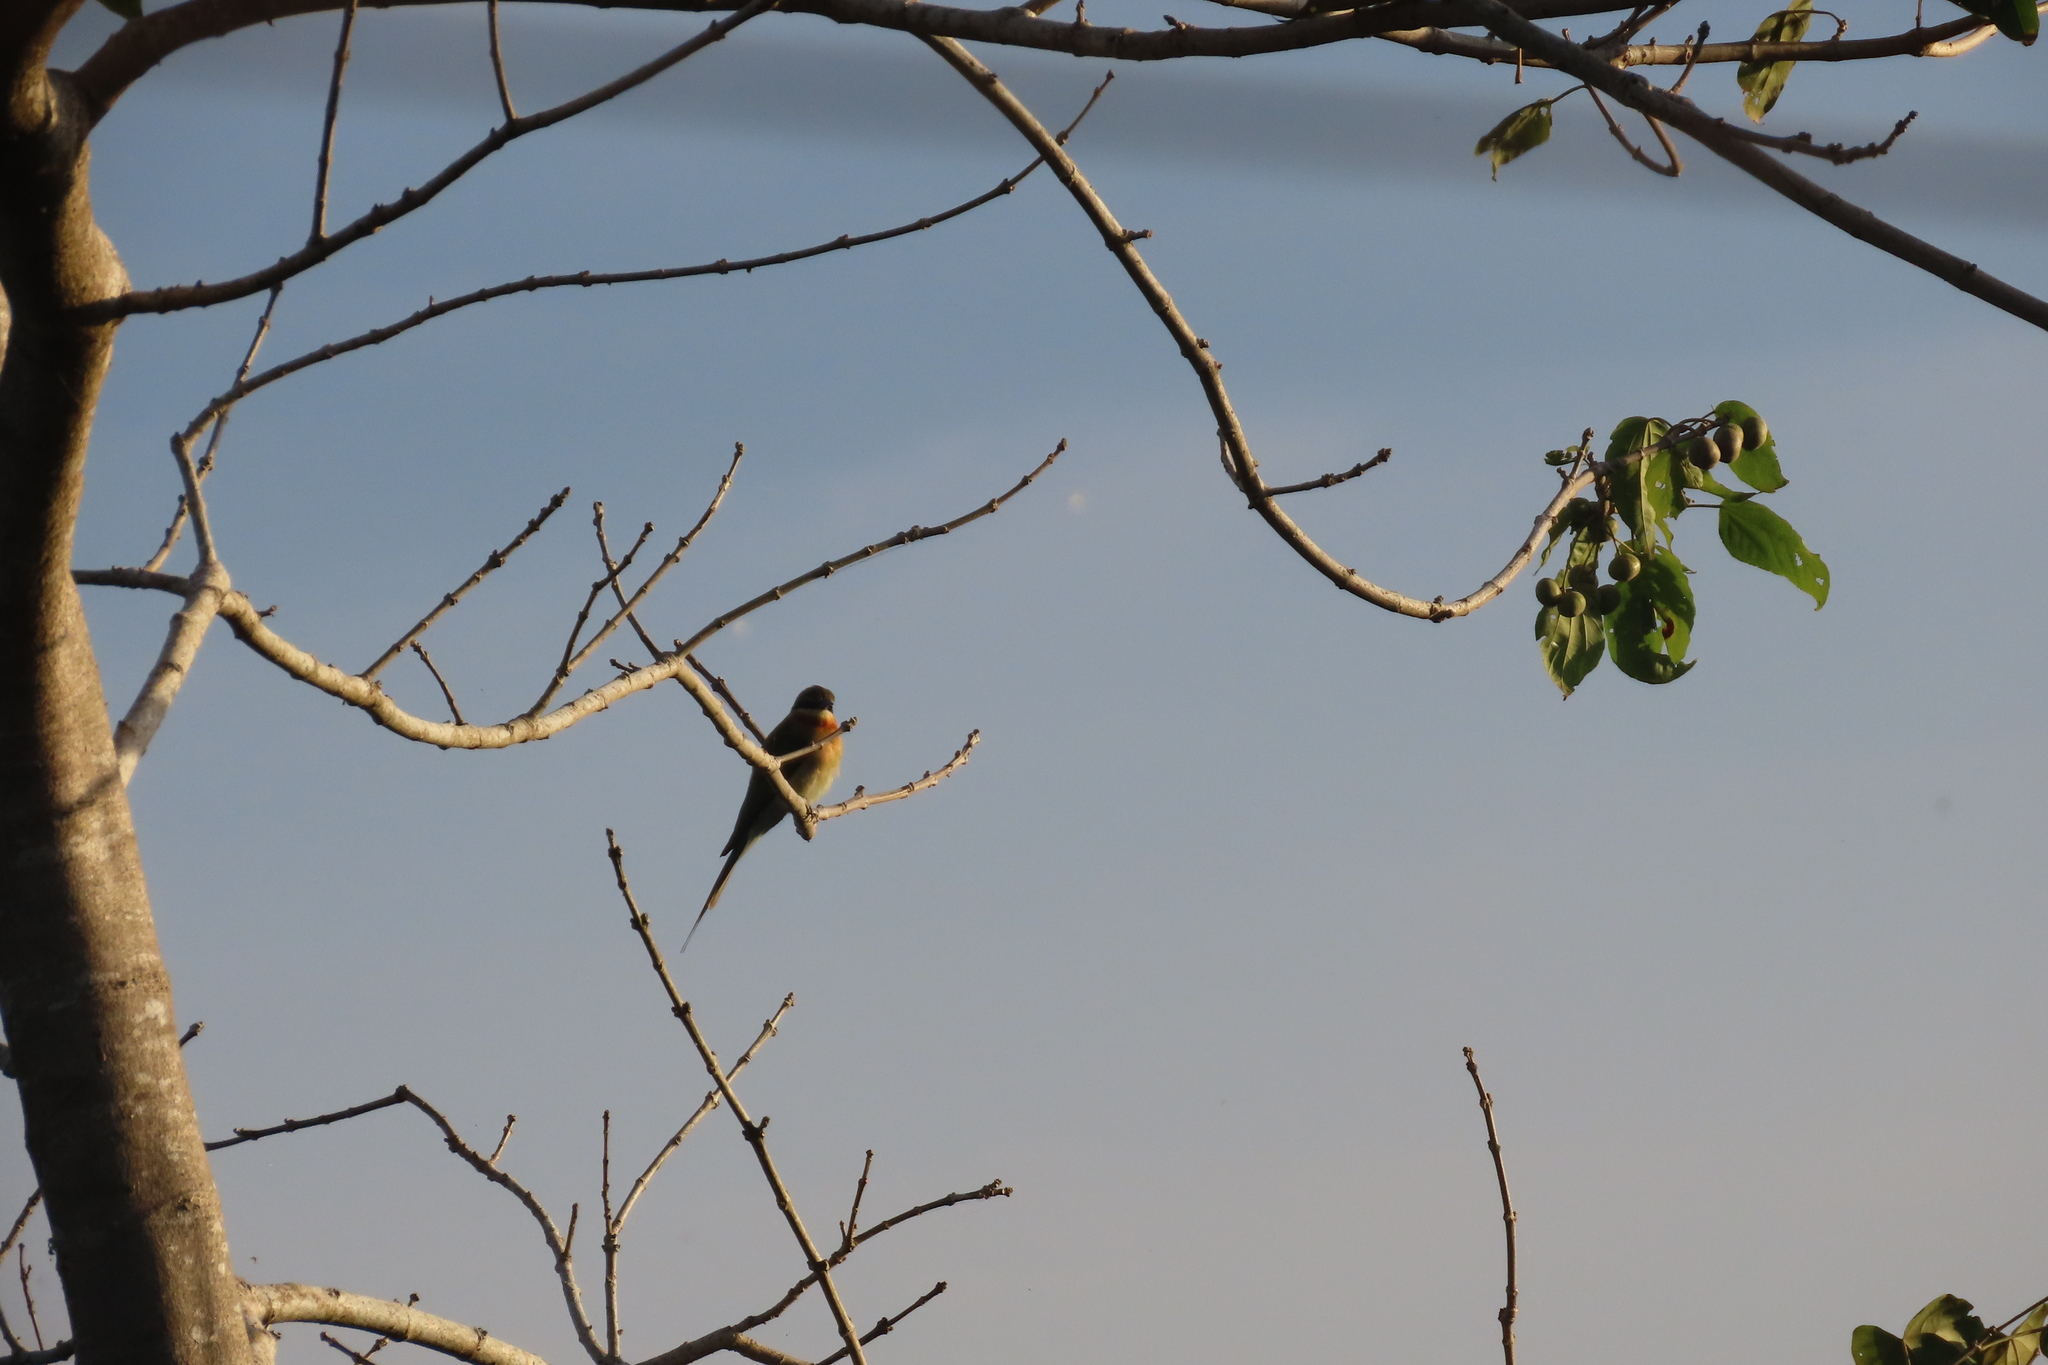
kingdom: Animalia
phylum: Chordata
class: Aves
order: Coraciiformes
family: Meropidae
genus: Merops
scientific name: Merops philippinus
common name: Blue-tailed bee-eater
